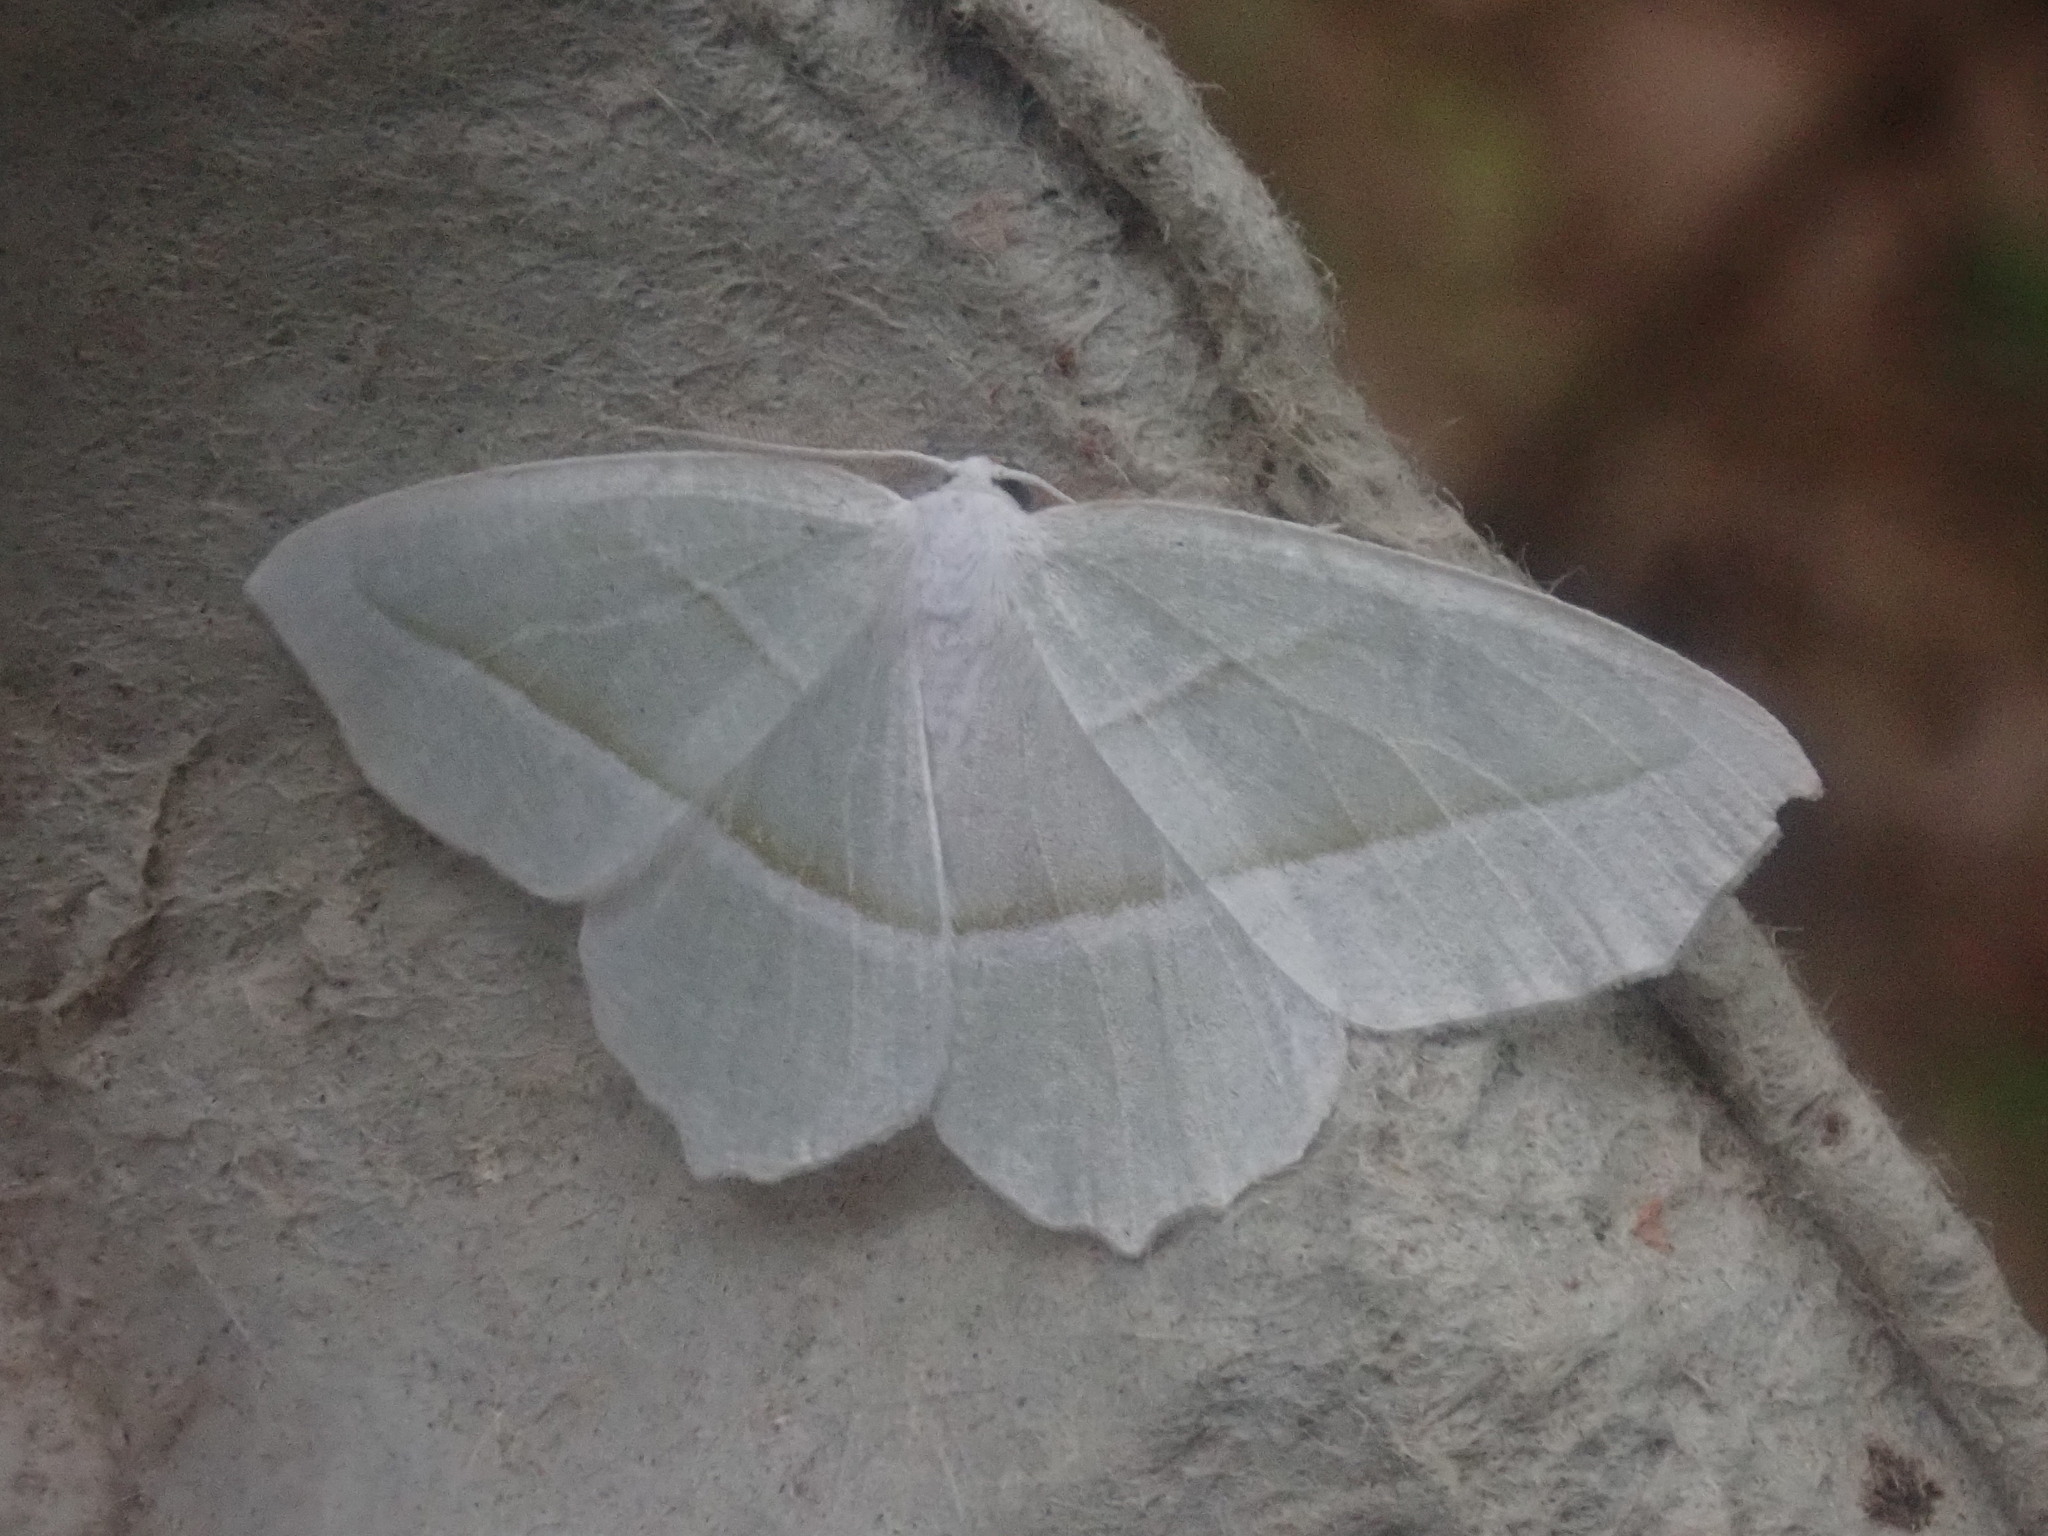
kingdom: Animalia
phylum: Arthropoda
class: Insecta
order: Lepidoptera
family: Geometridae
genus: Campaea
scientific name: Campaea perlata
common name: Fringed looper
